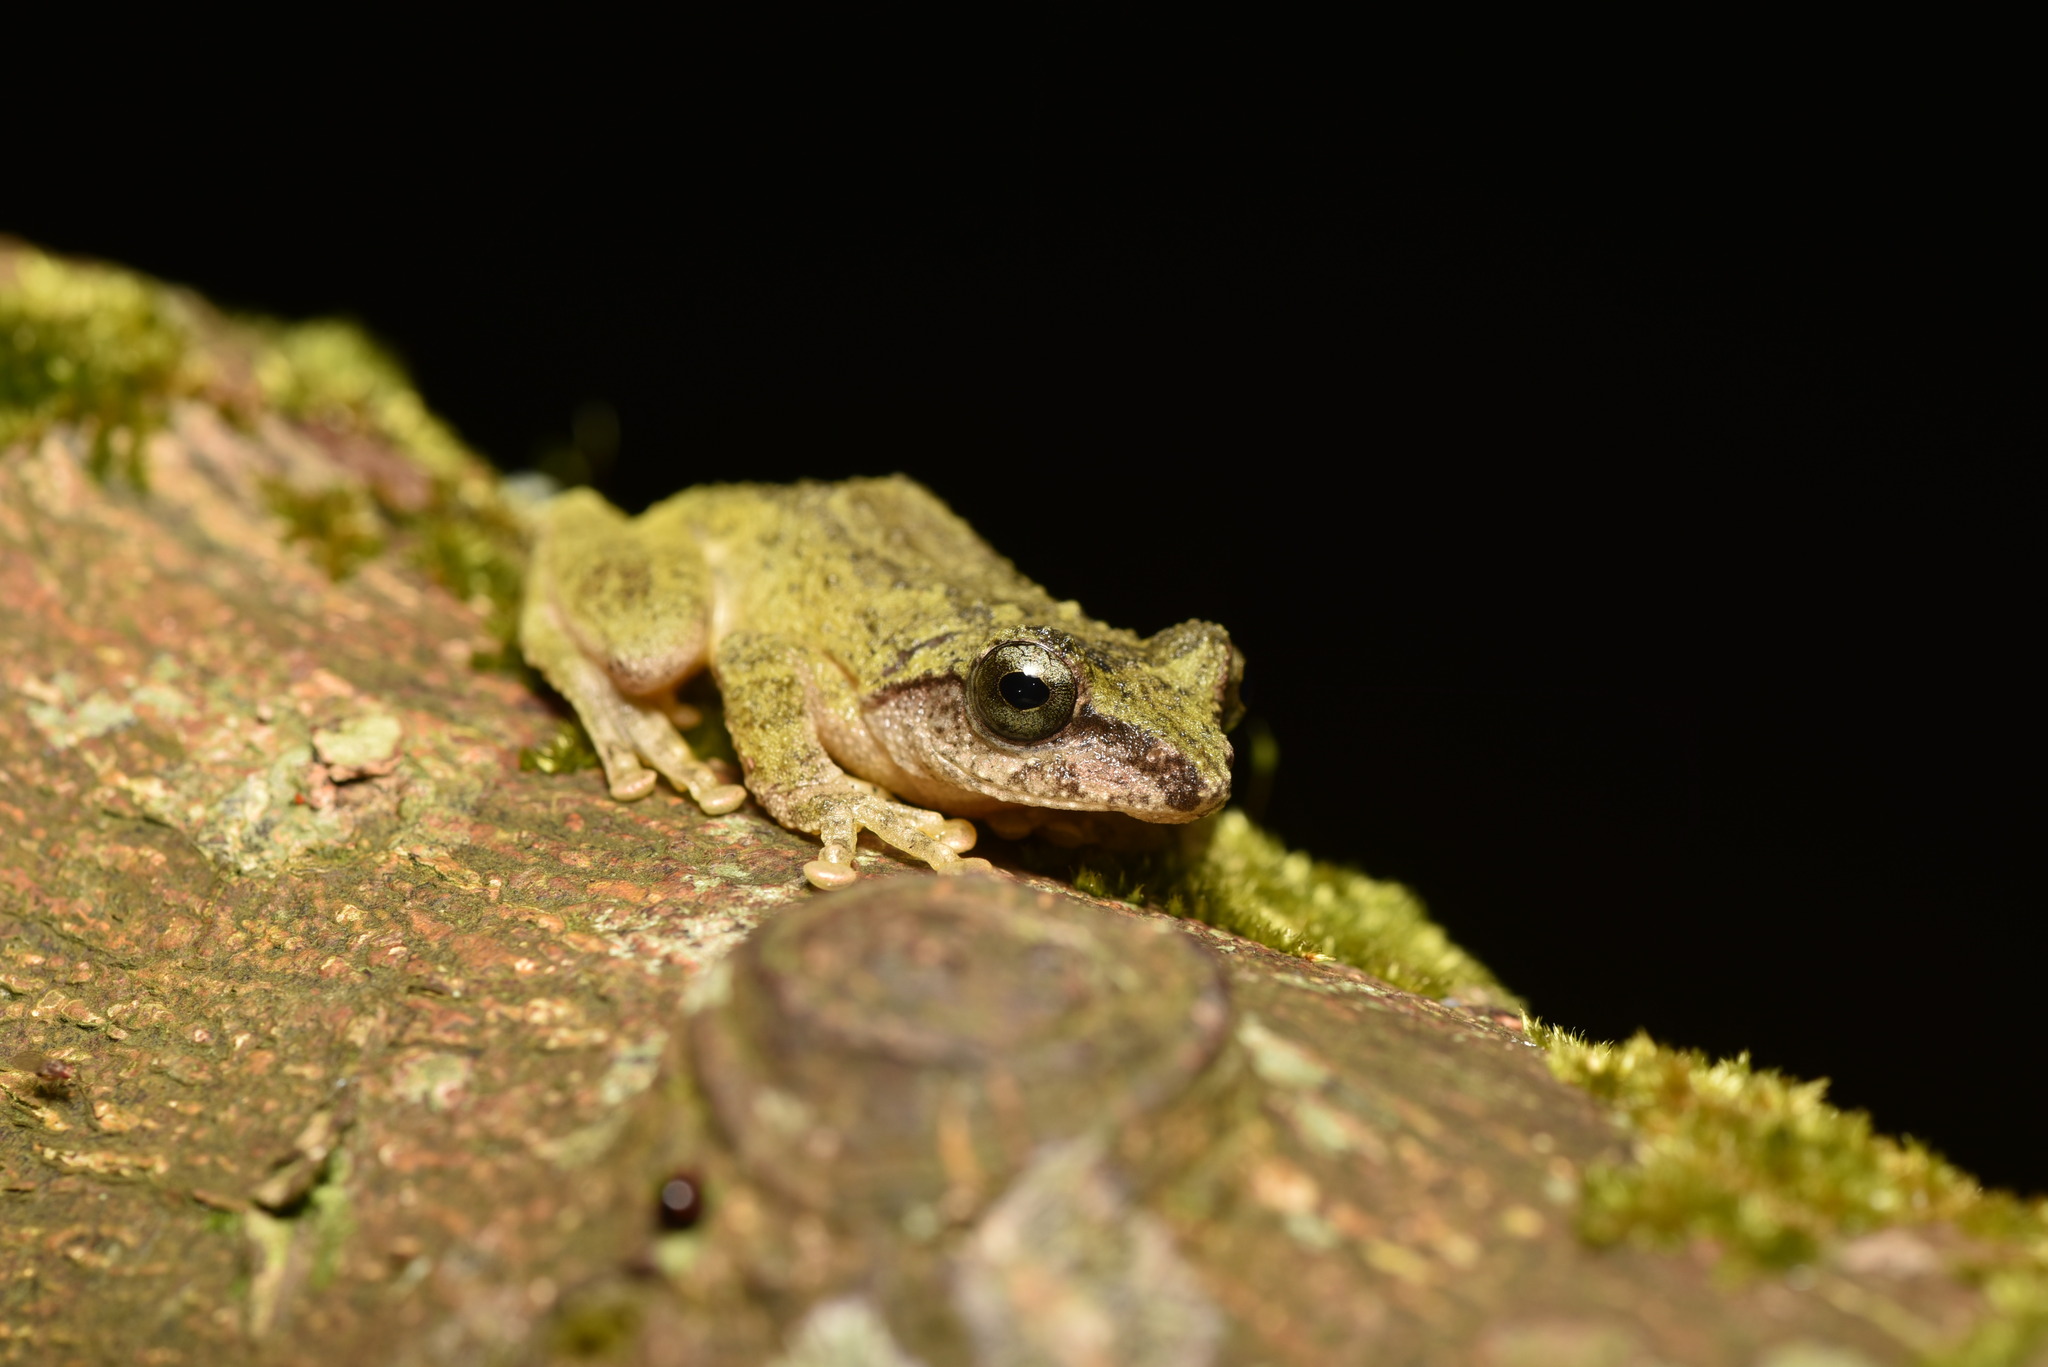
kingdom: Animalia
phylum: Chordata
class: Amphibia
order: Anura
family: Rhacophoridae
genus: Kurixalus
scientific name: Kurixalus berylliniris
